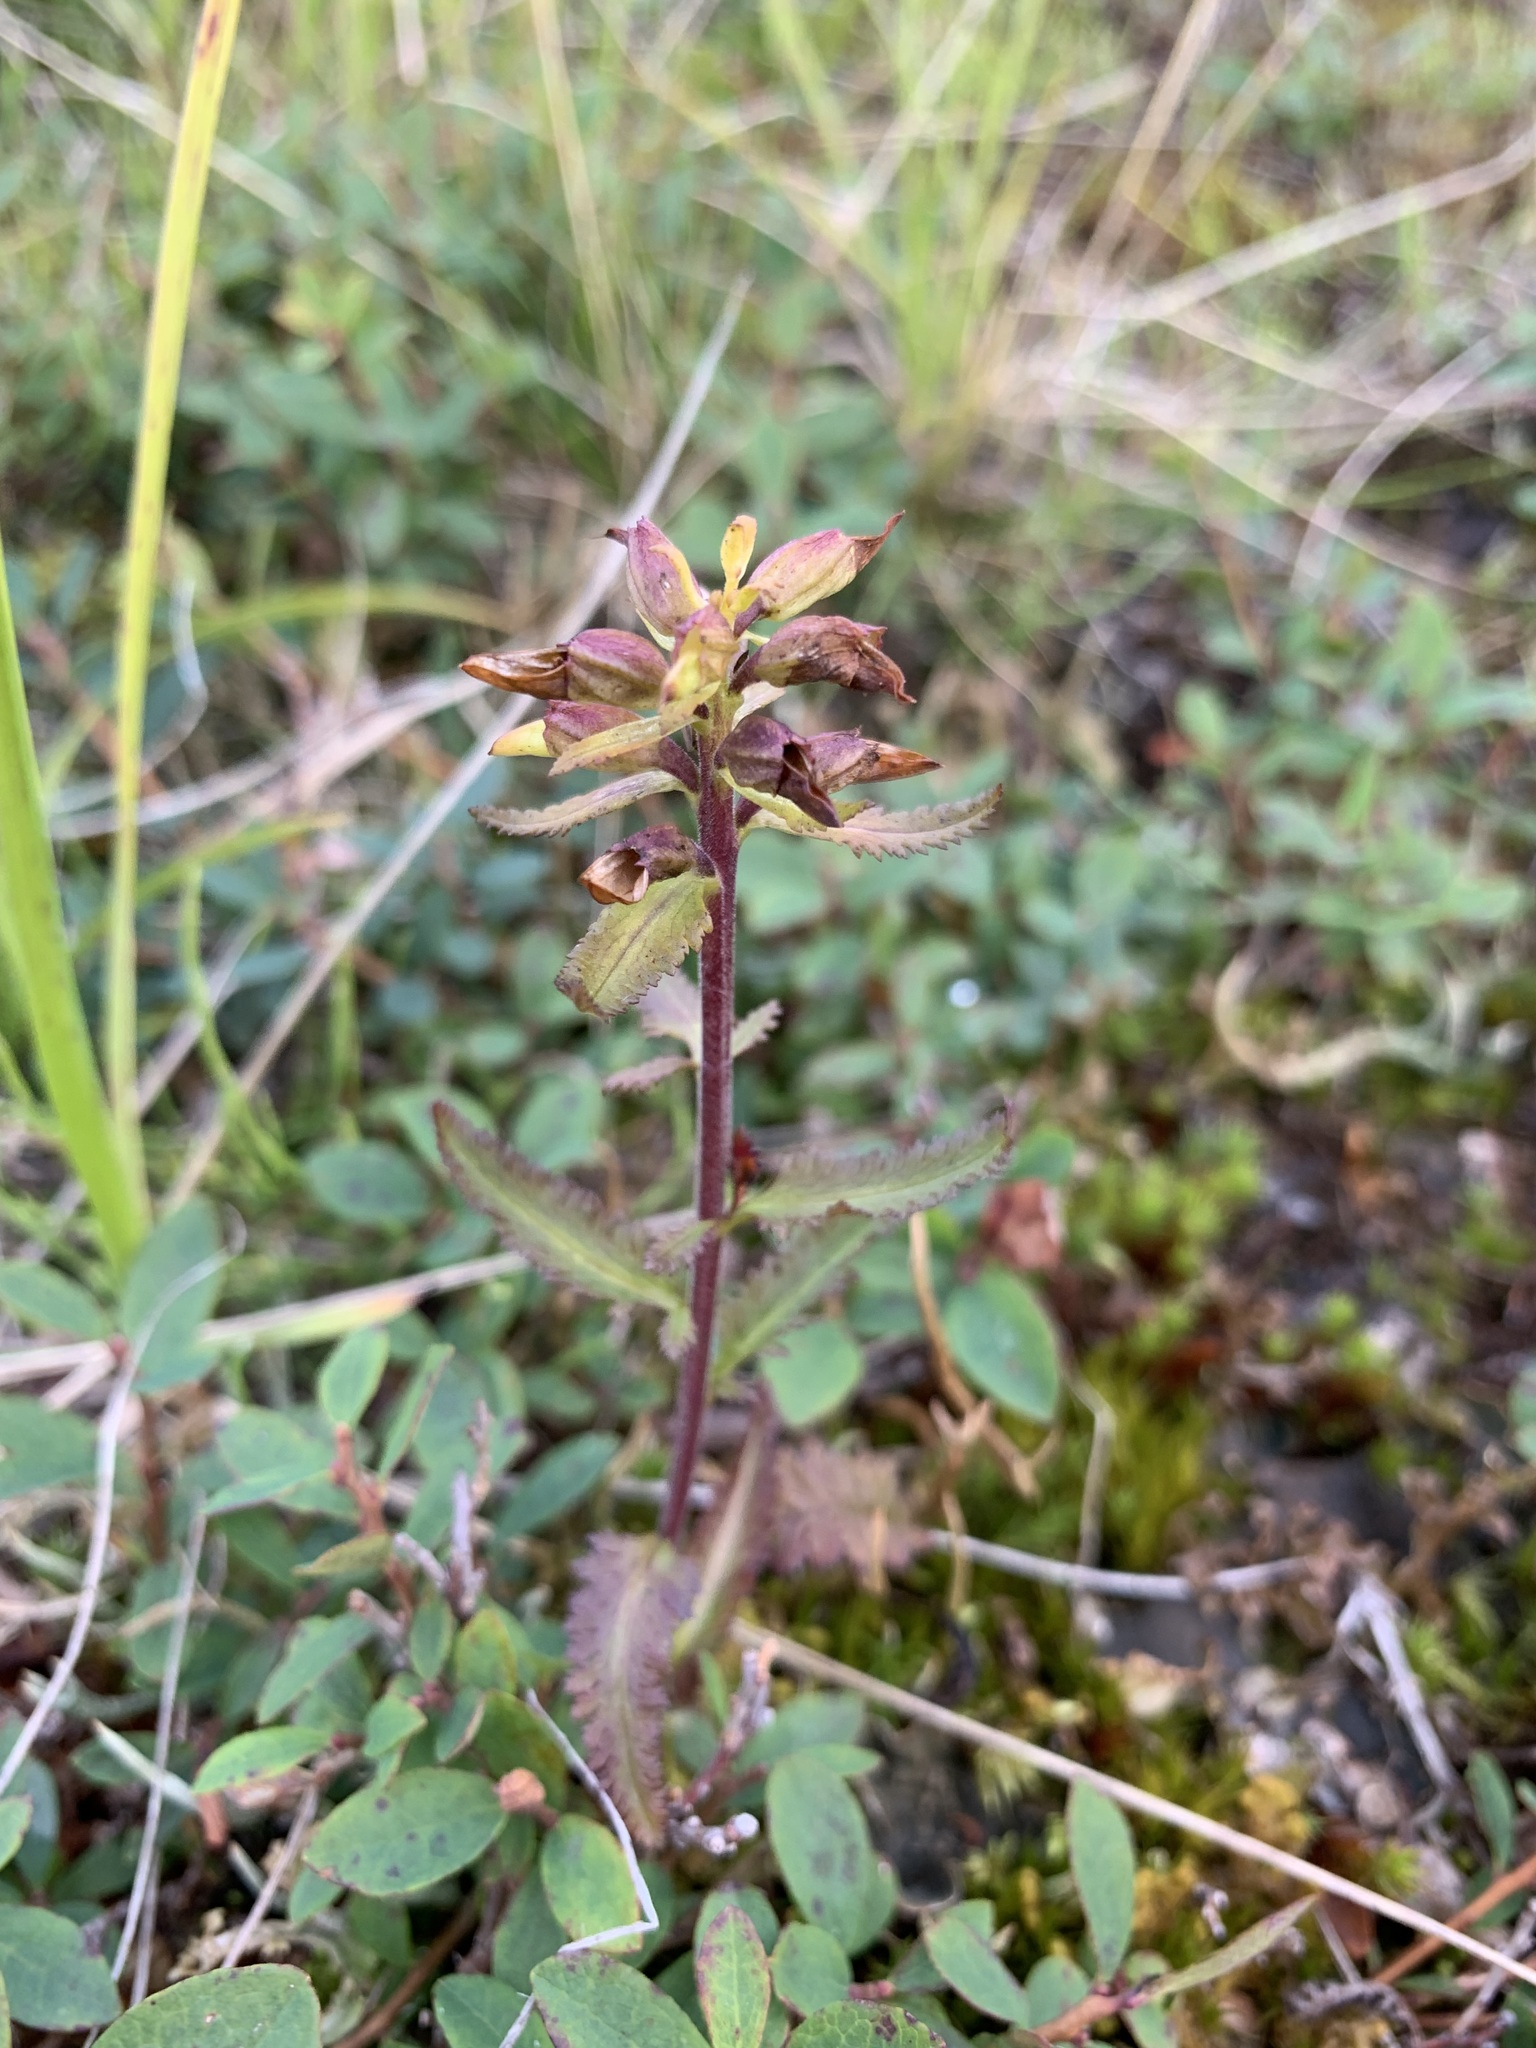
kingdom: Plantae
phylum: Tracheophyta
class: Magnoliopsida
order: Lamiales
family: Orobanchaceae
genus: Pedicularis
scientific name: Pedicularis lapponica
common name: Lapland lousewort
